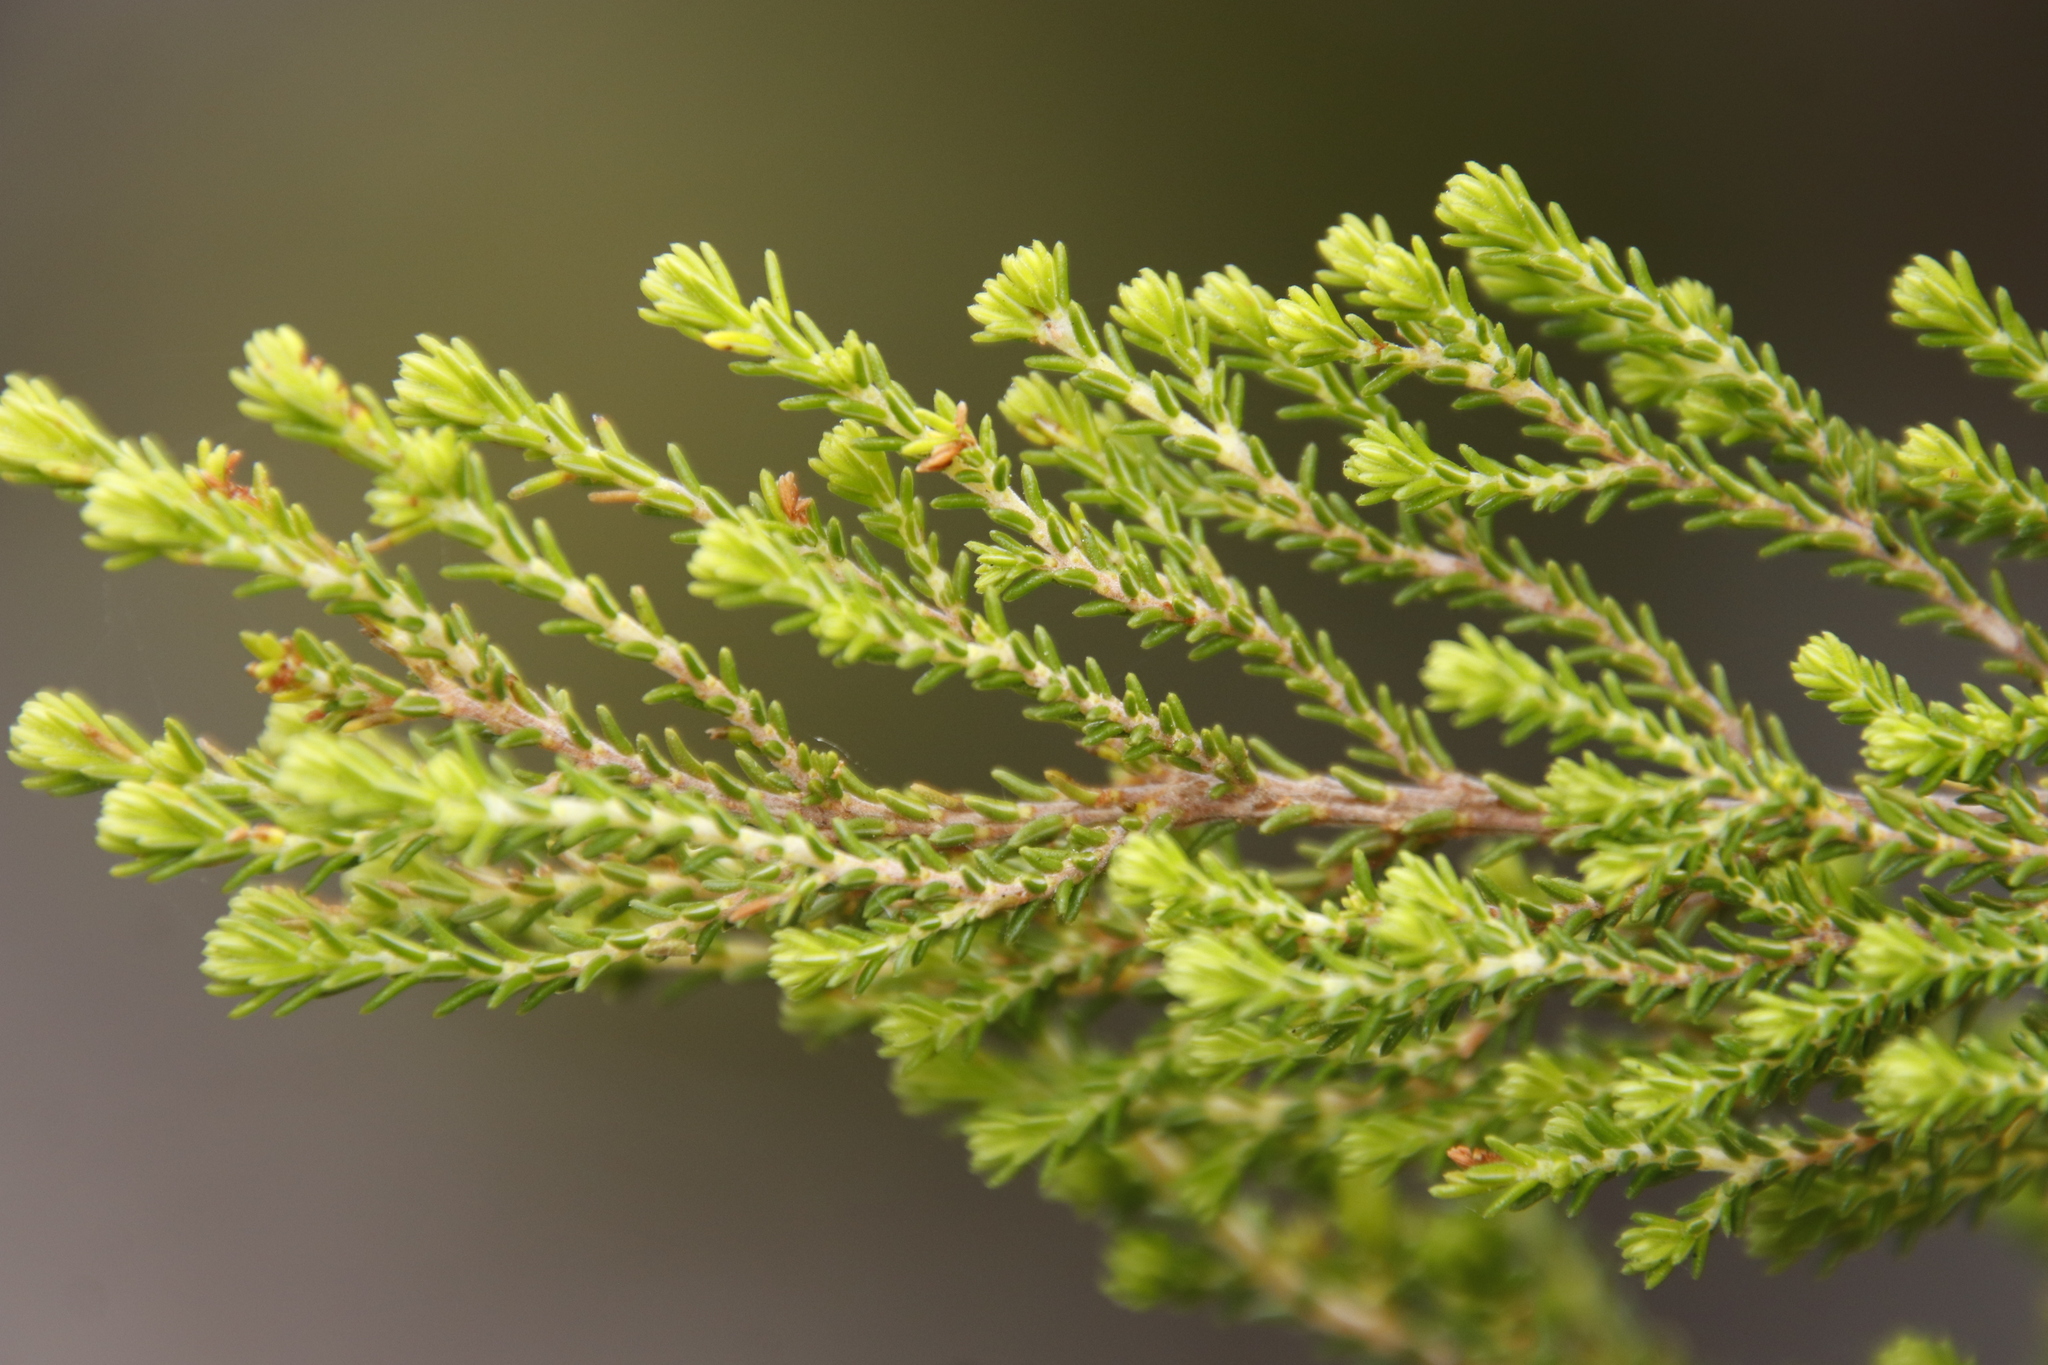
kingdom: Plantae
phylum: Tracheophyta
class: Magnoliopsida
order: Ericales
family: Ericaceae
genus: Erica
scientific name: Erica tristis
